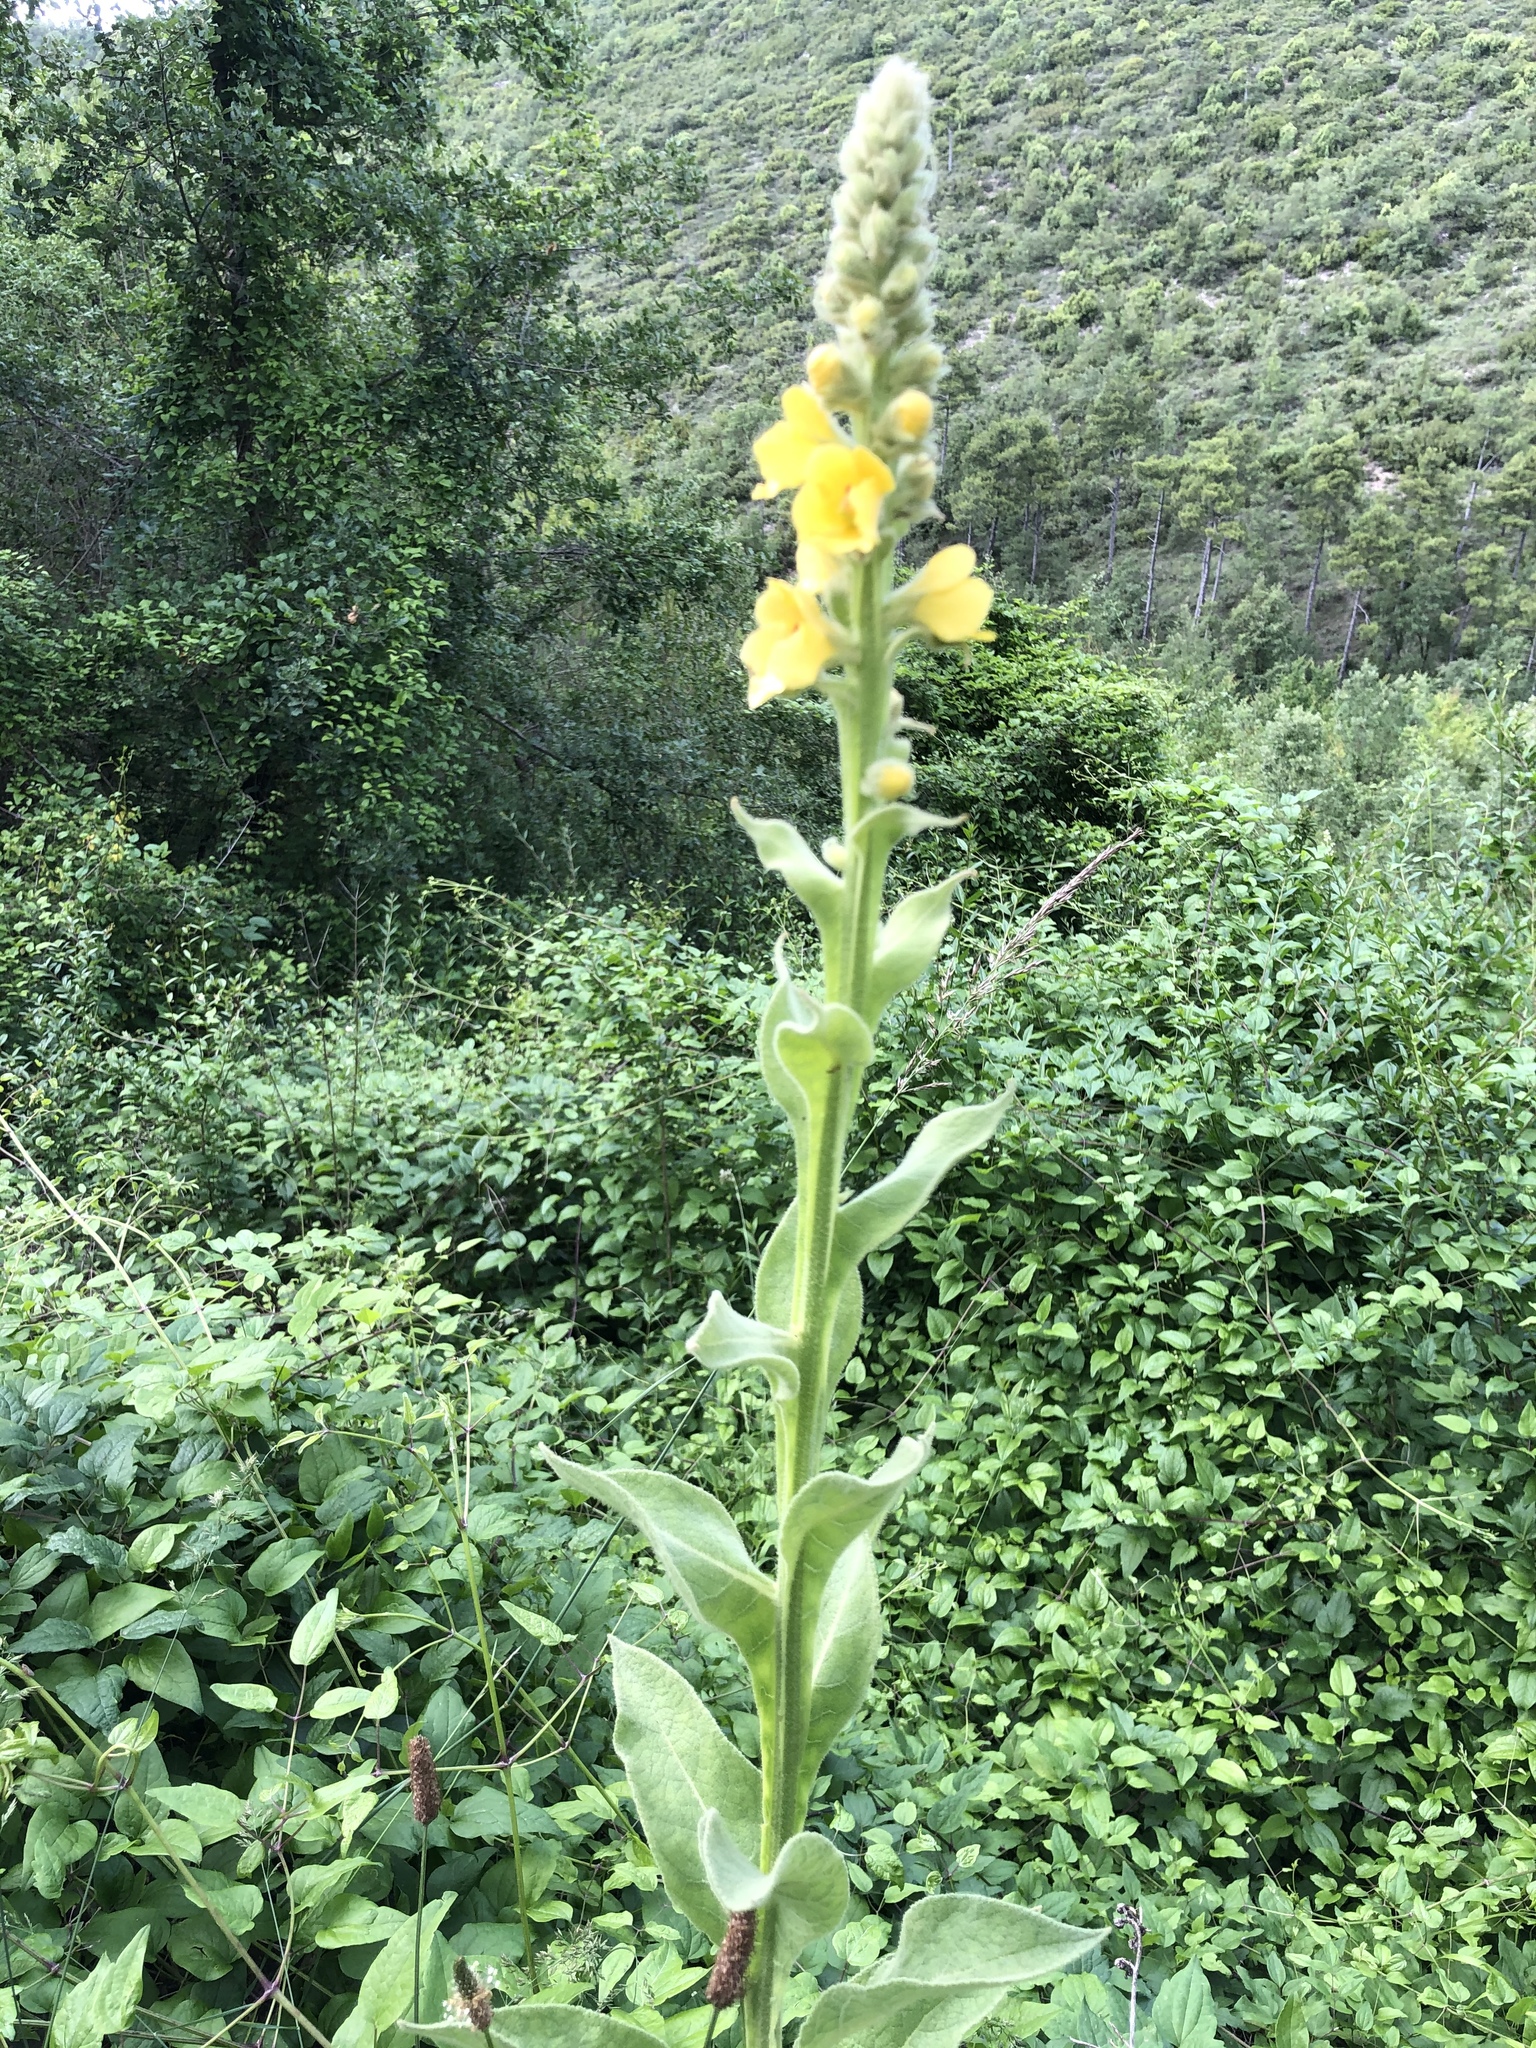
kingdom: Plantae
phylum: Tracheophyta
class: Magnoliopsida
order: Lamiales
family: Scrophulariaceae
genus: Verbascum
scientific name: Verbascum thapsus
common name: Common mullein
